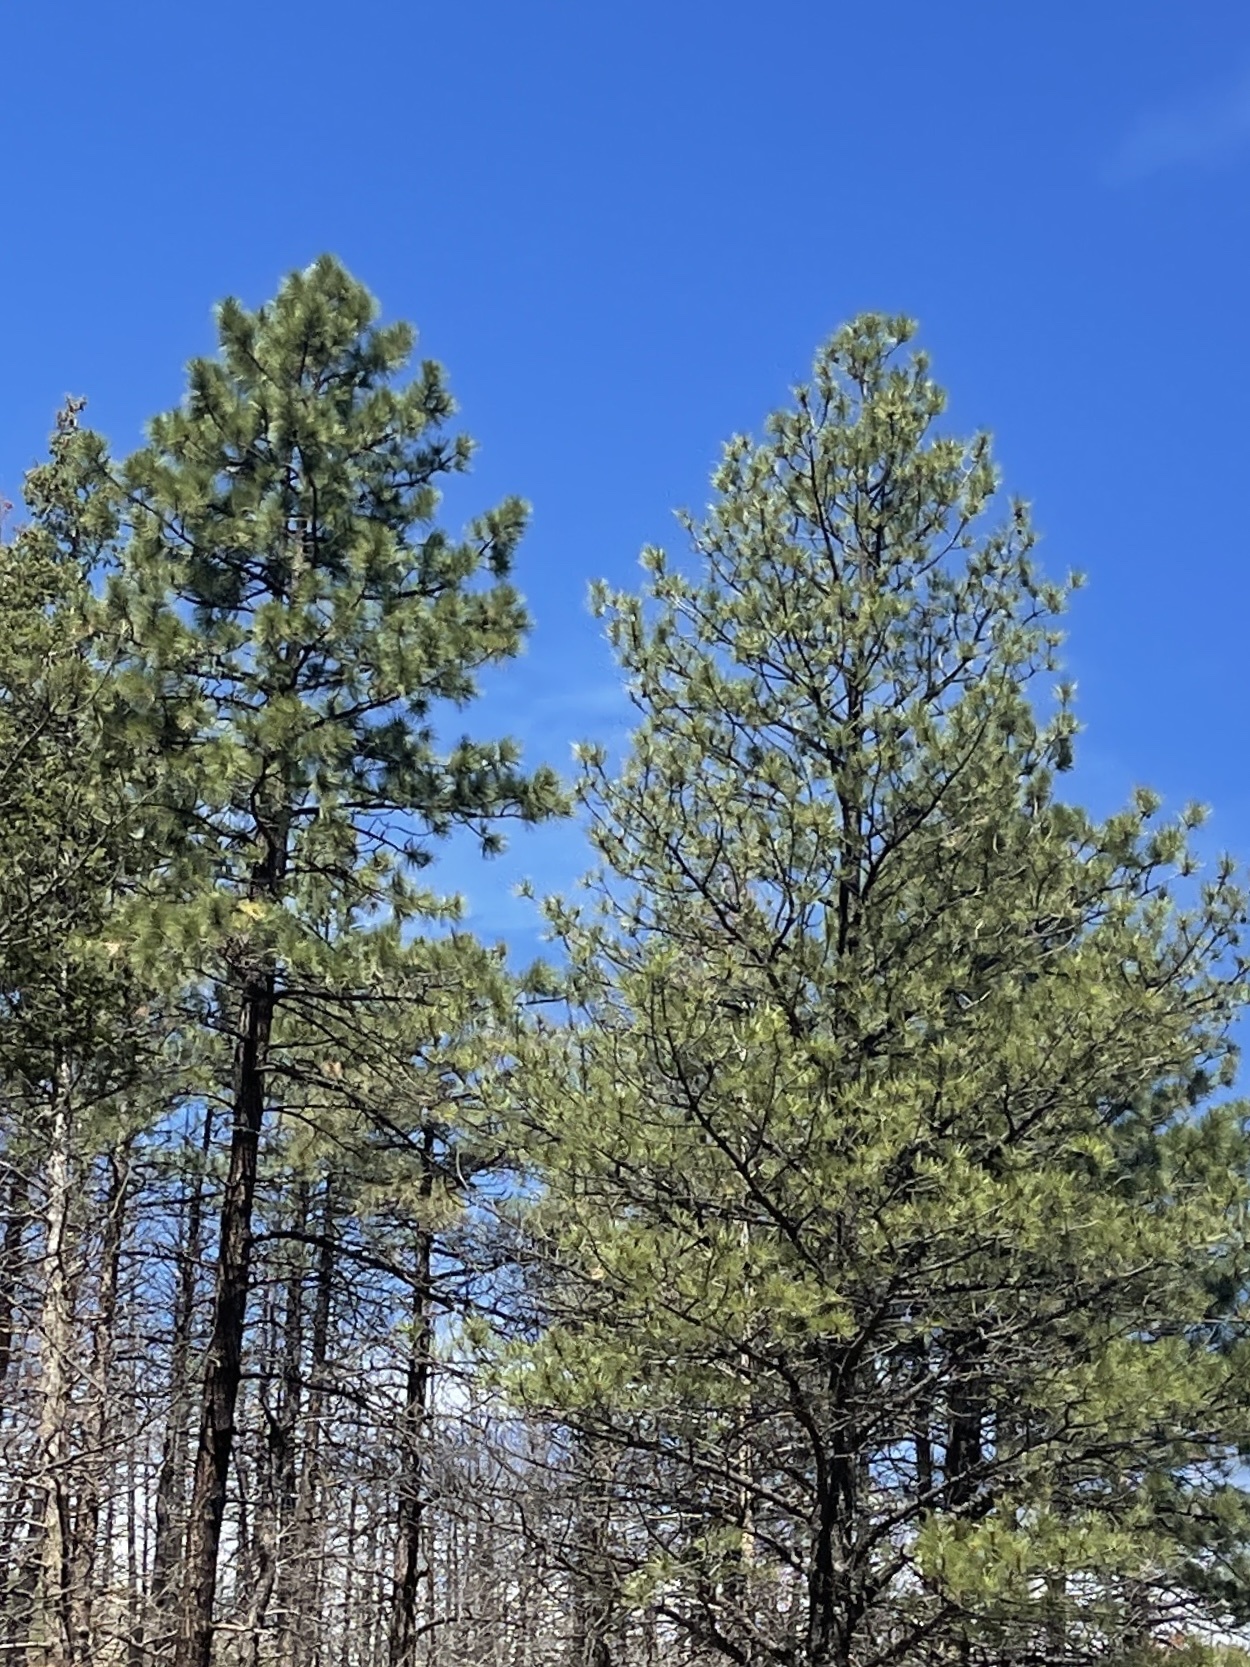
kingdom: Plantae
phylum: Tracheophyta
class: Pinopsida
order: Pinales
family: Pinaceae
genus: Pinus
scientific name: Pinus ponderosa
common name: Western yellow-pine
